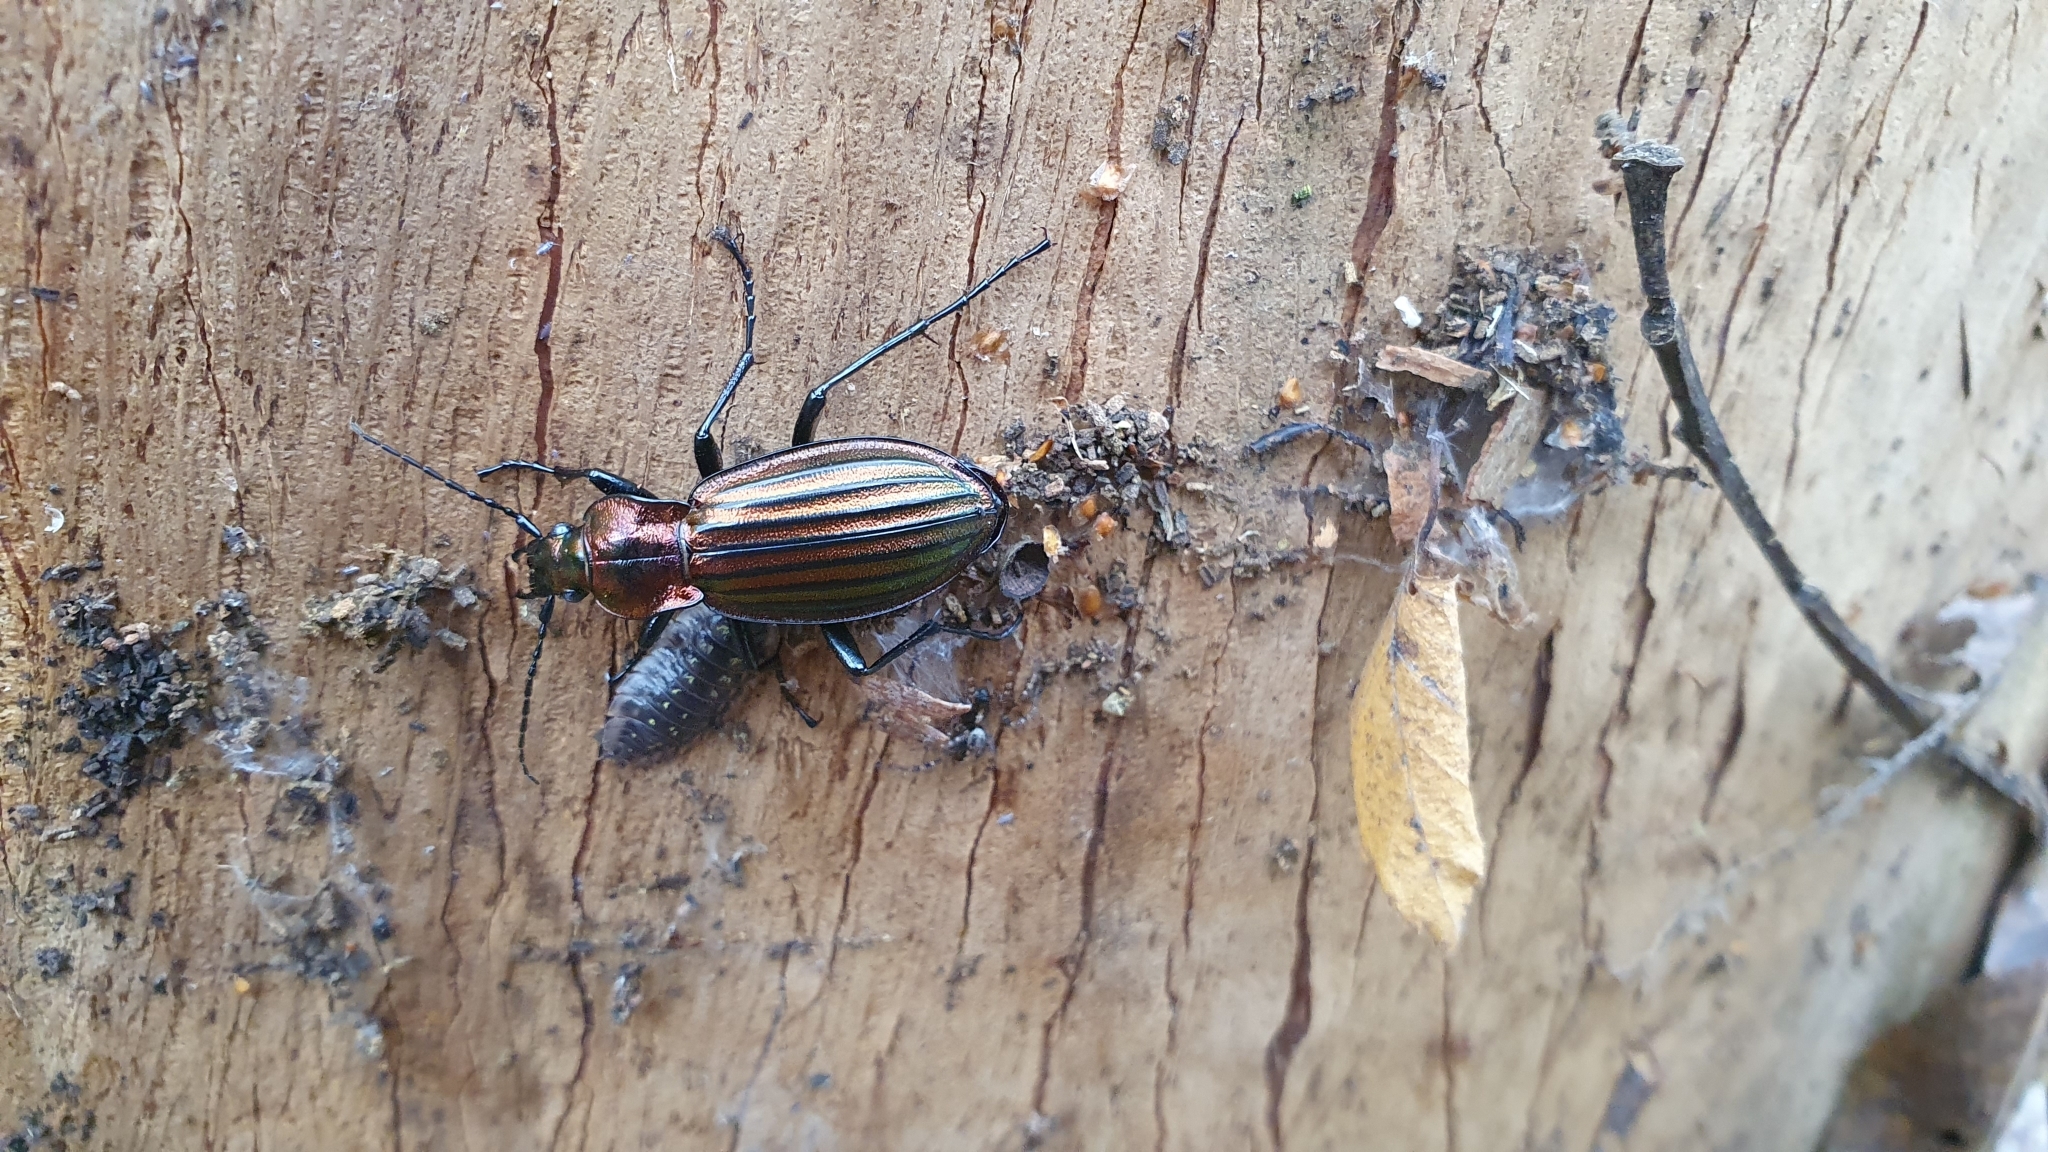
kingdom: Animalia
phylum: Arthropoda
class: Insecta
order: Coleoptera
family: Carabidae
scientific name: Carabidae
